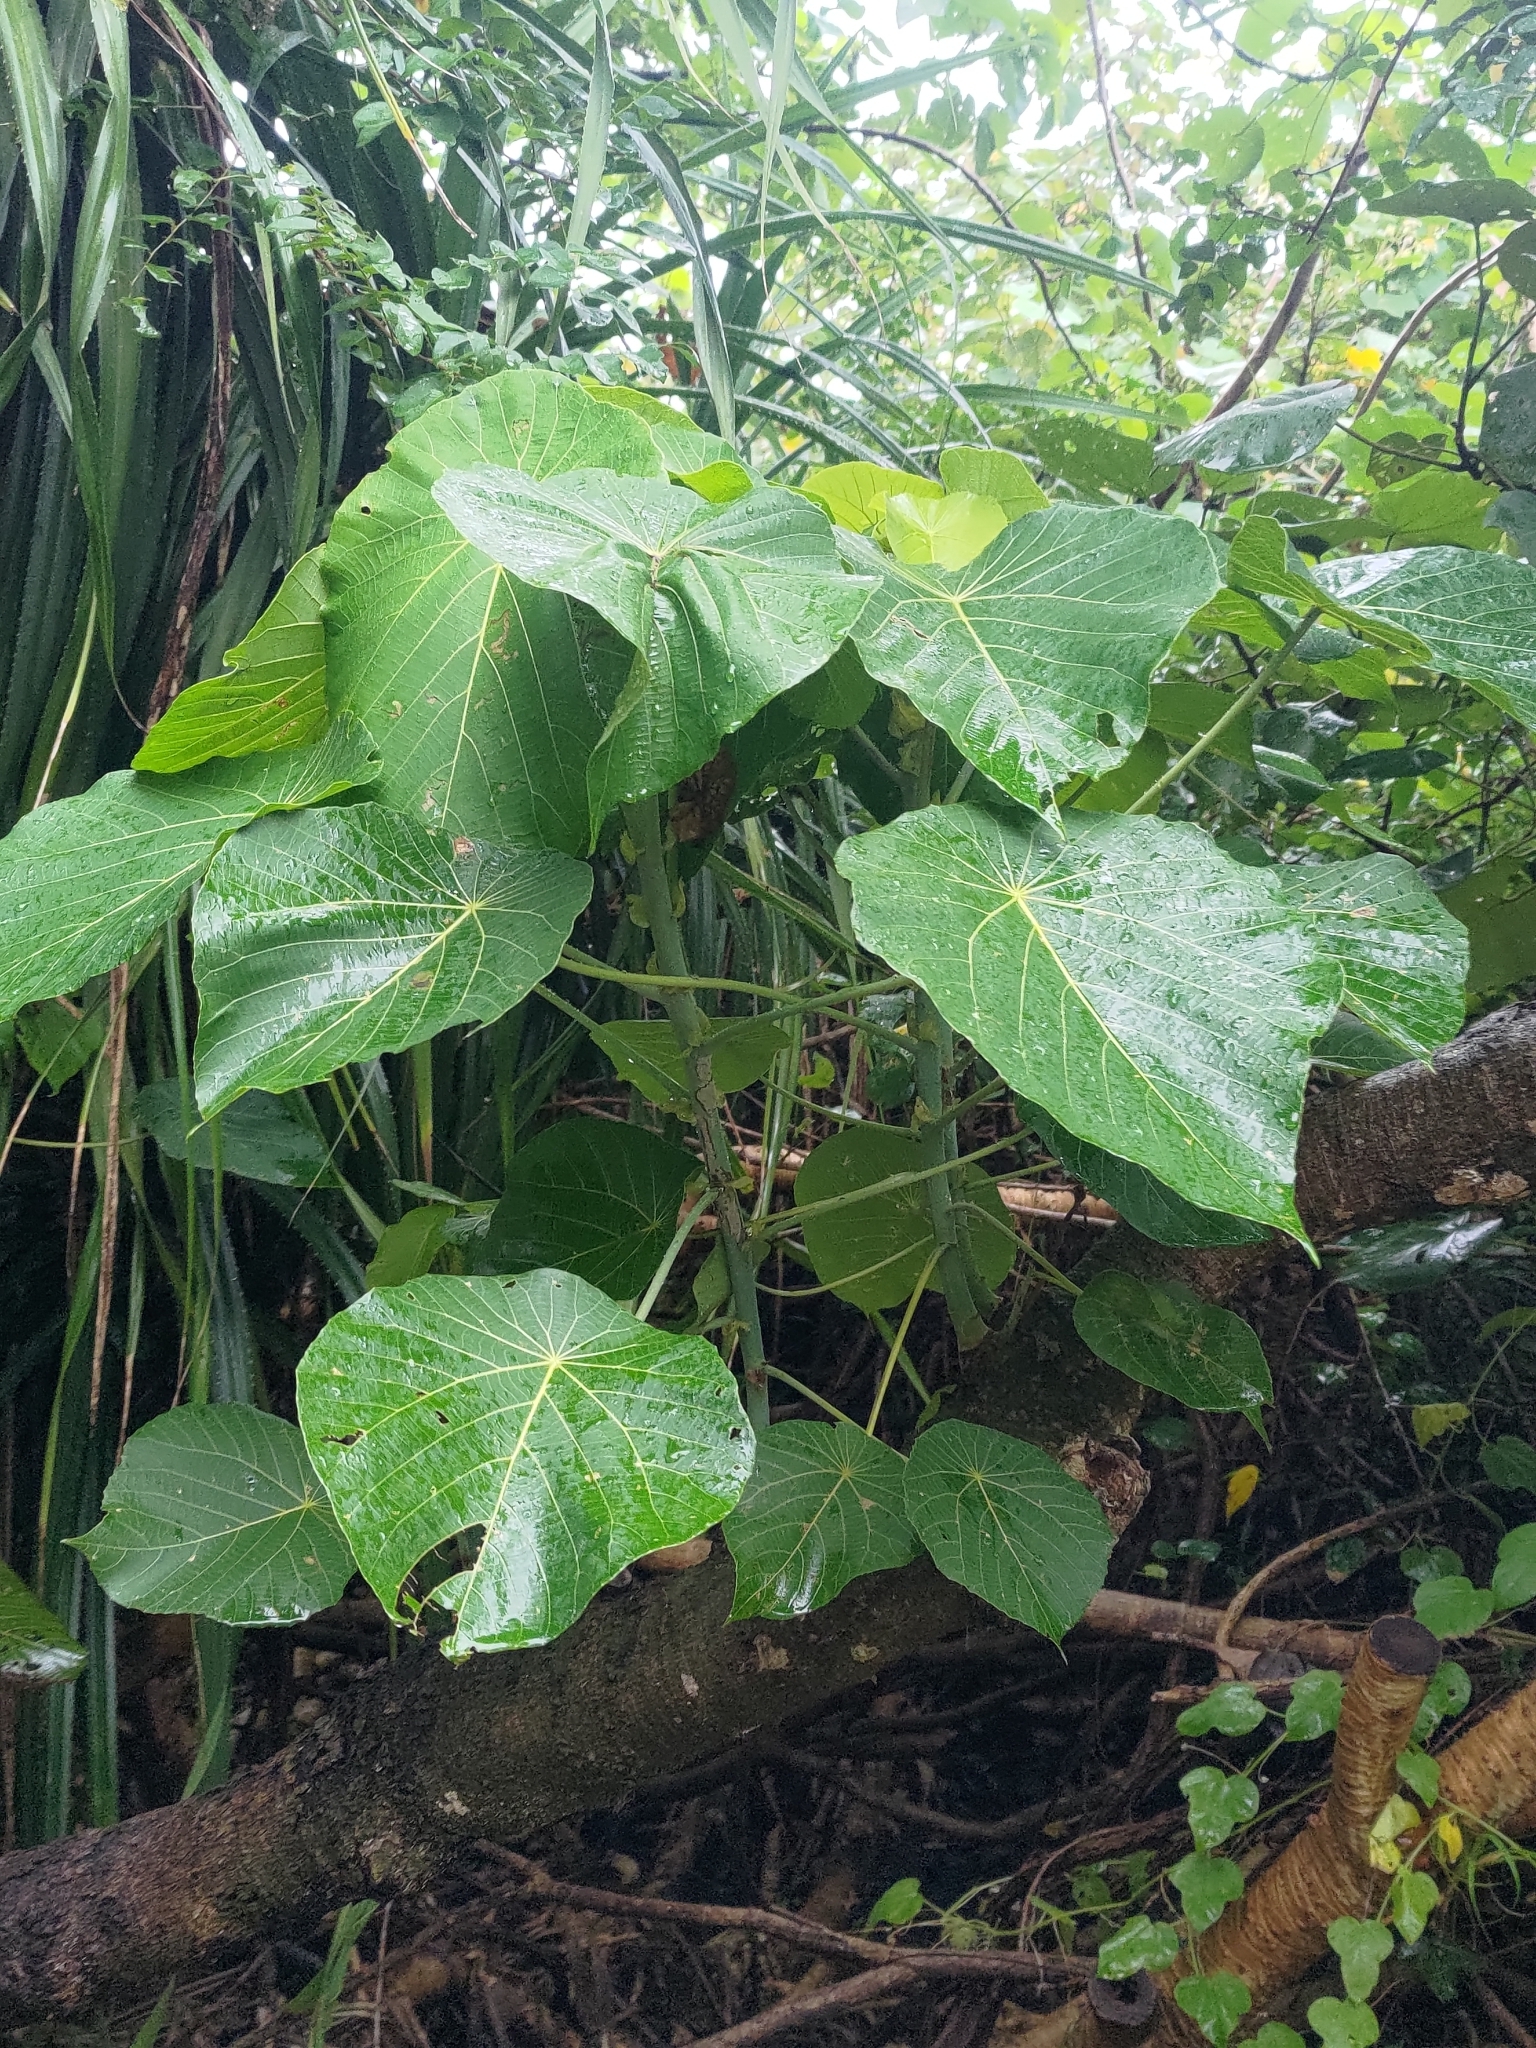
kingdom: Plantae
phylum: Tracheophyta
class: Magnoliopsida
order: Malpighiales
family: Euphorbiaceae
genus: Macaranga
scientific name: Macaranga tanarius
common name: Parasol leaf tree
